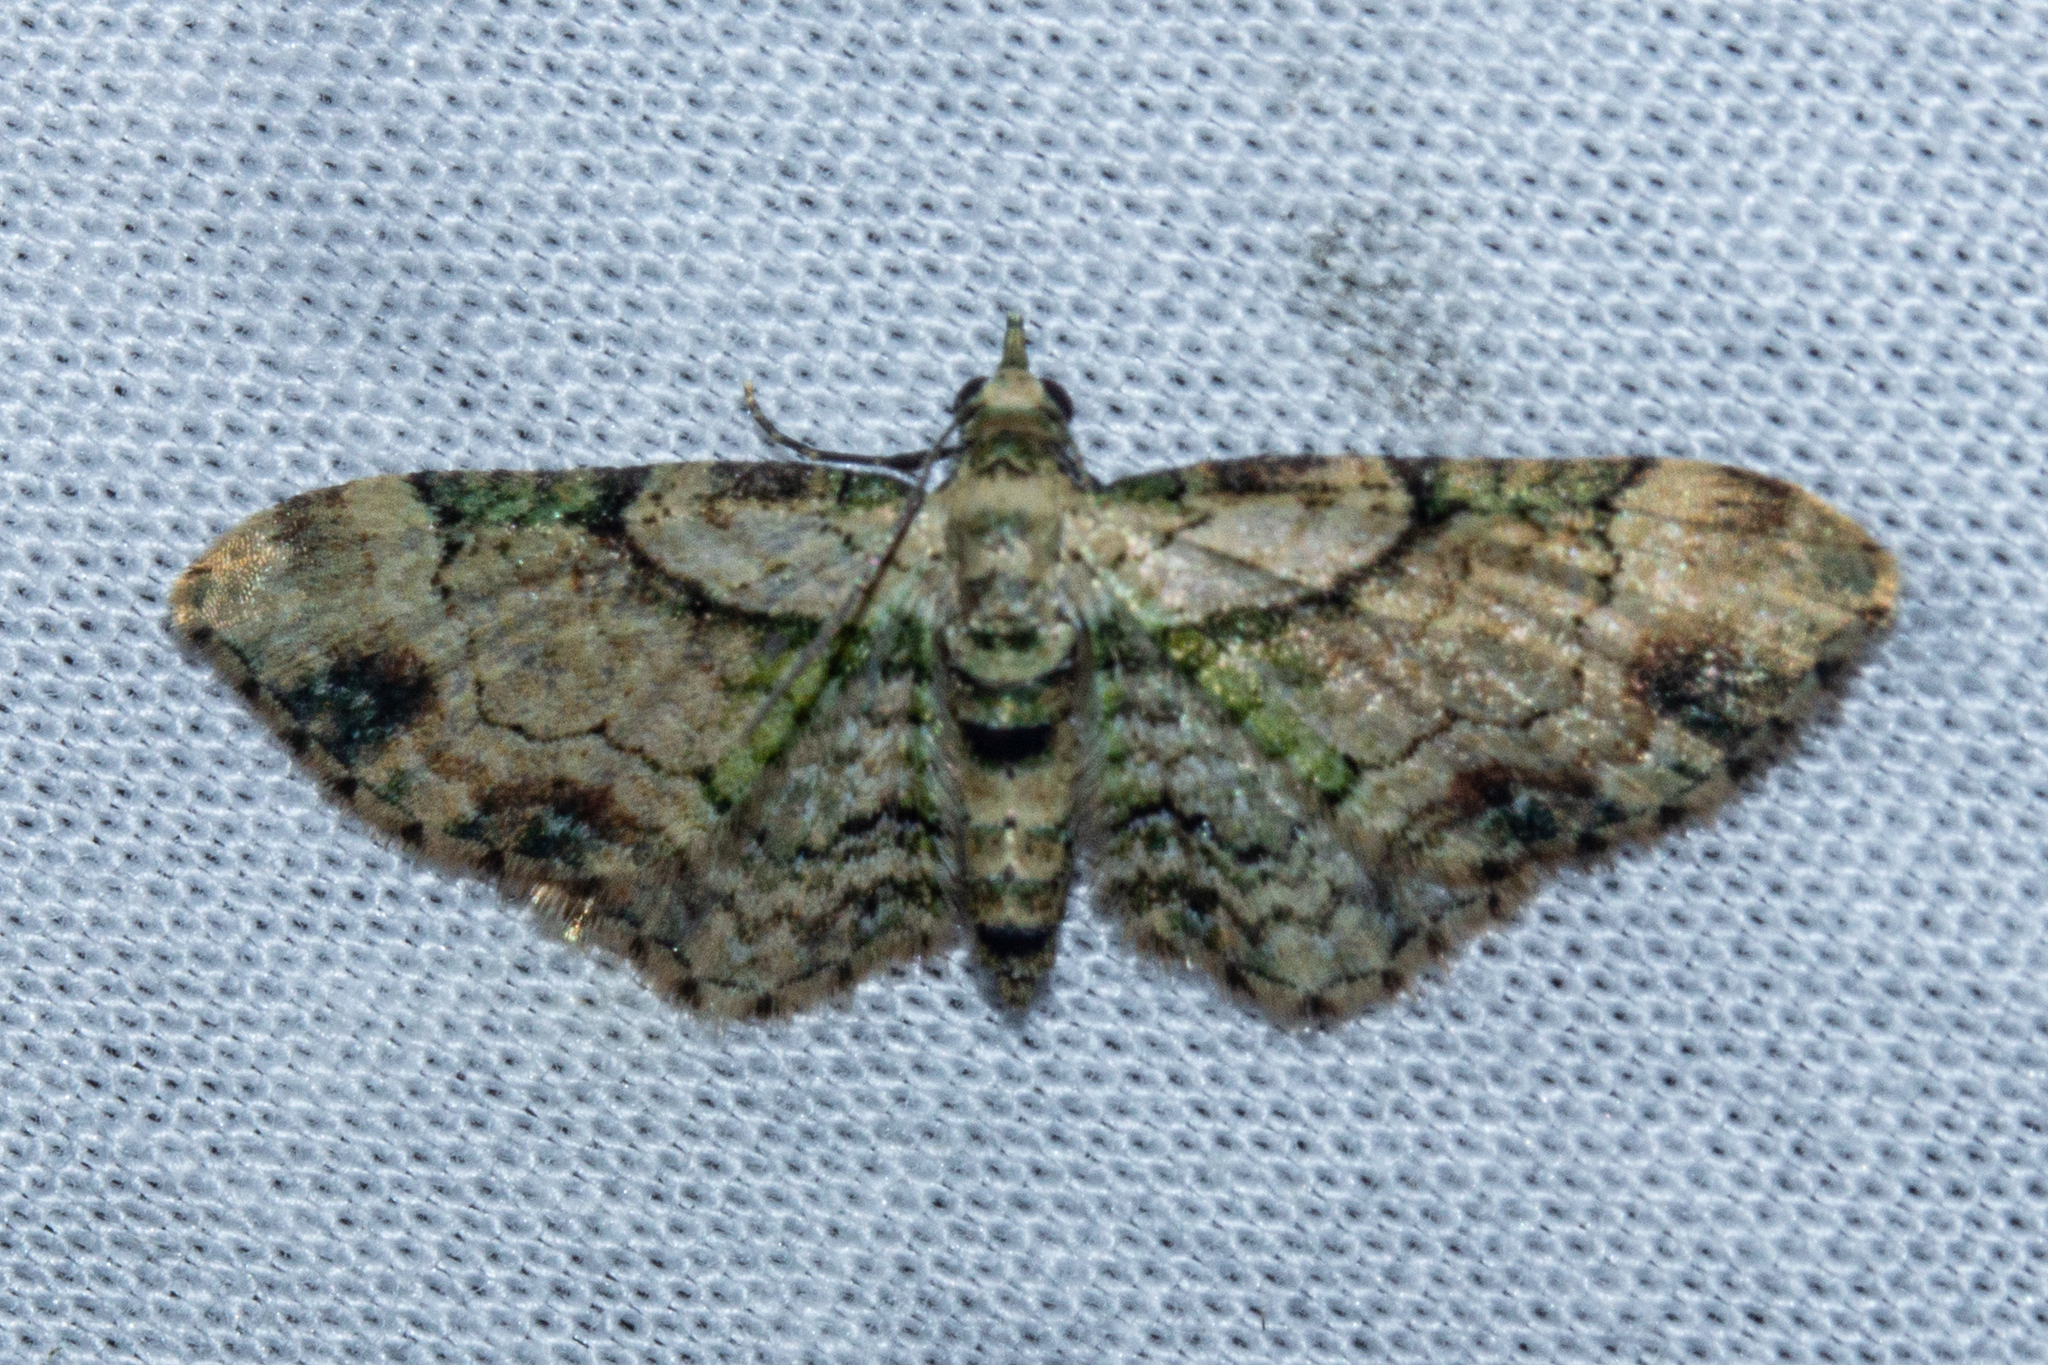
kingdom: Animalia
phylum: Arthropoda
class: Insecta
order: Lepidoptera
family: Geometridae
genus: Chloroclystis
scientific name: Chloroclystis
